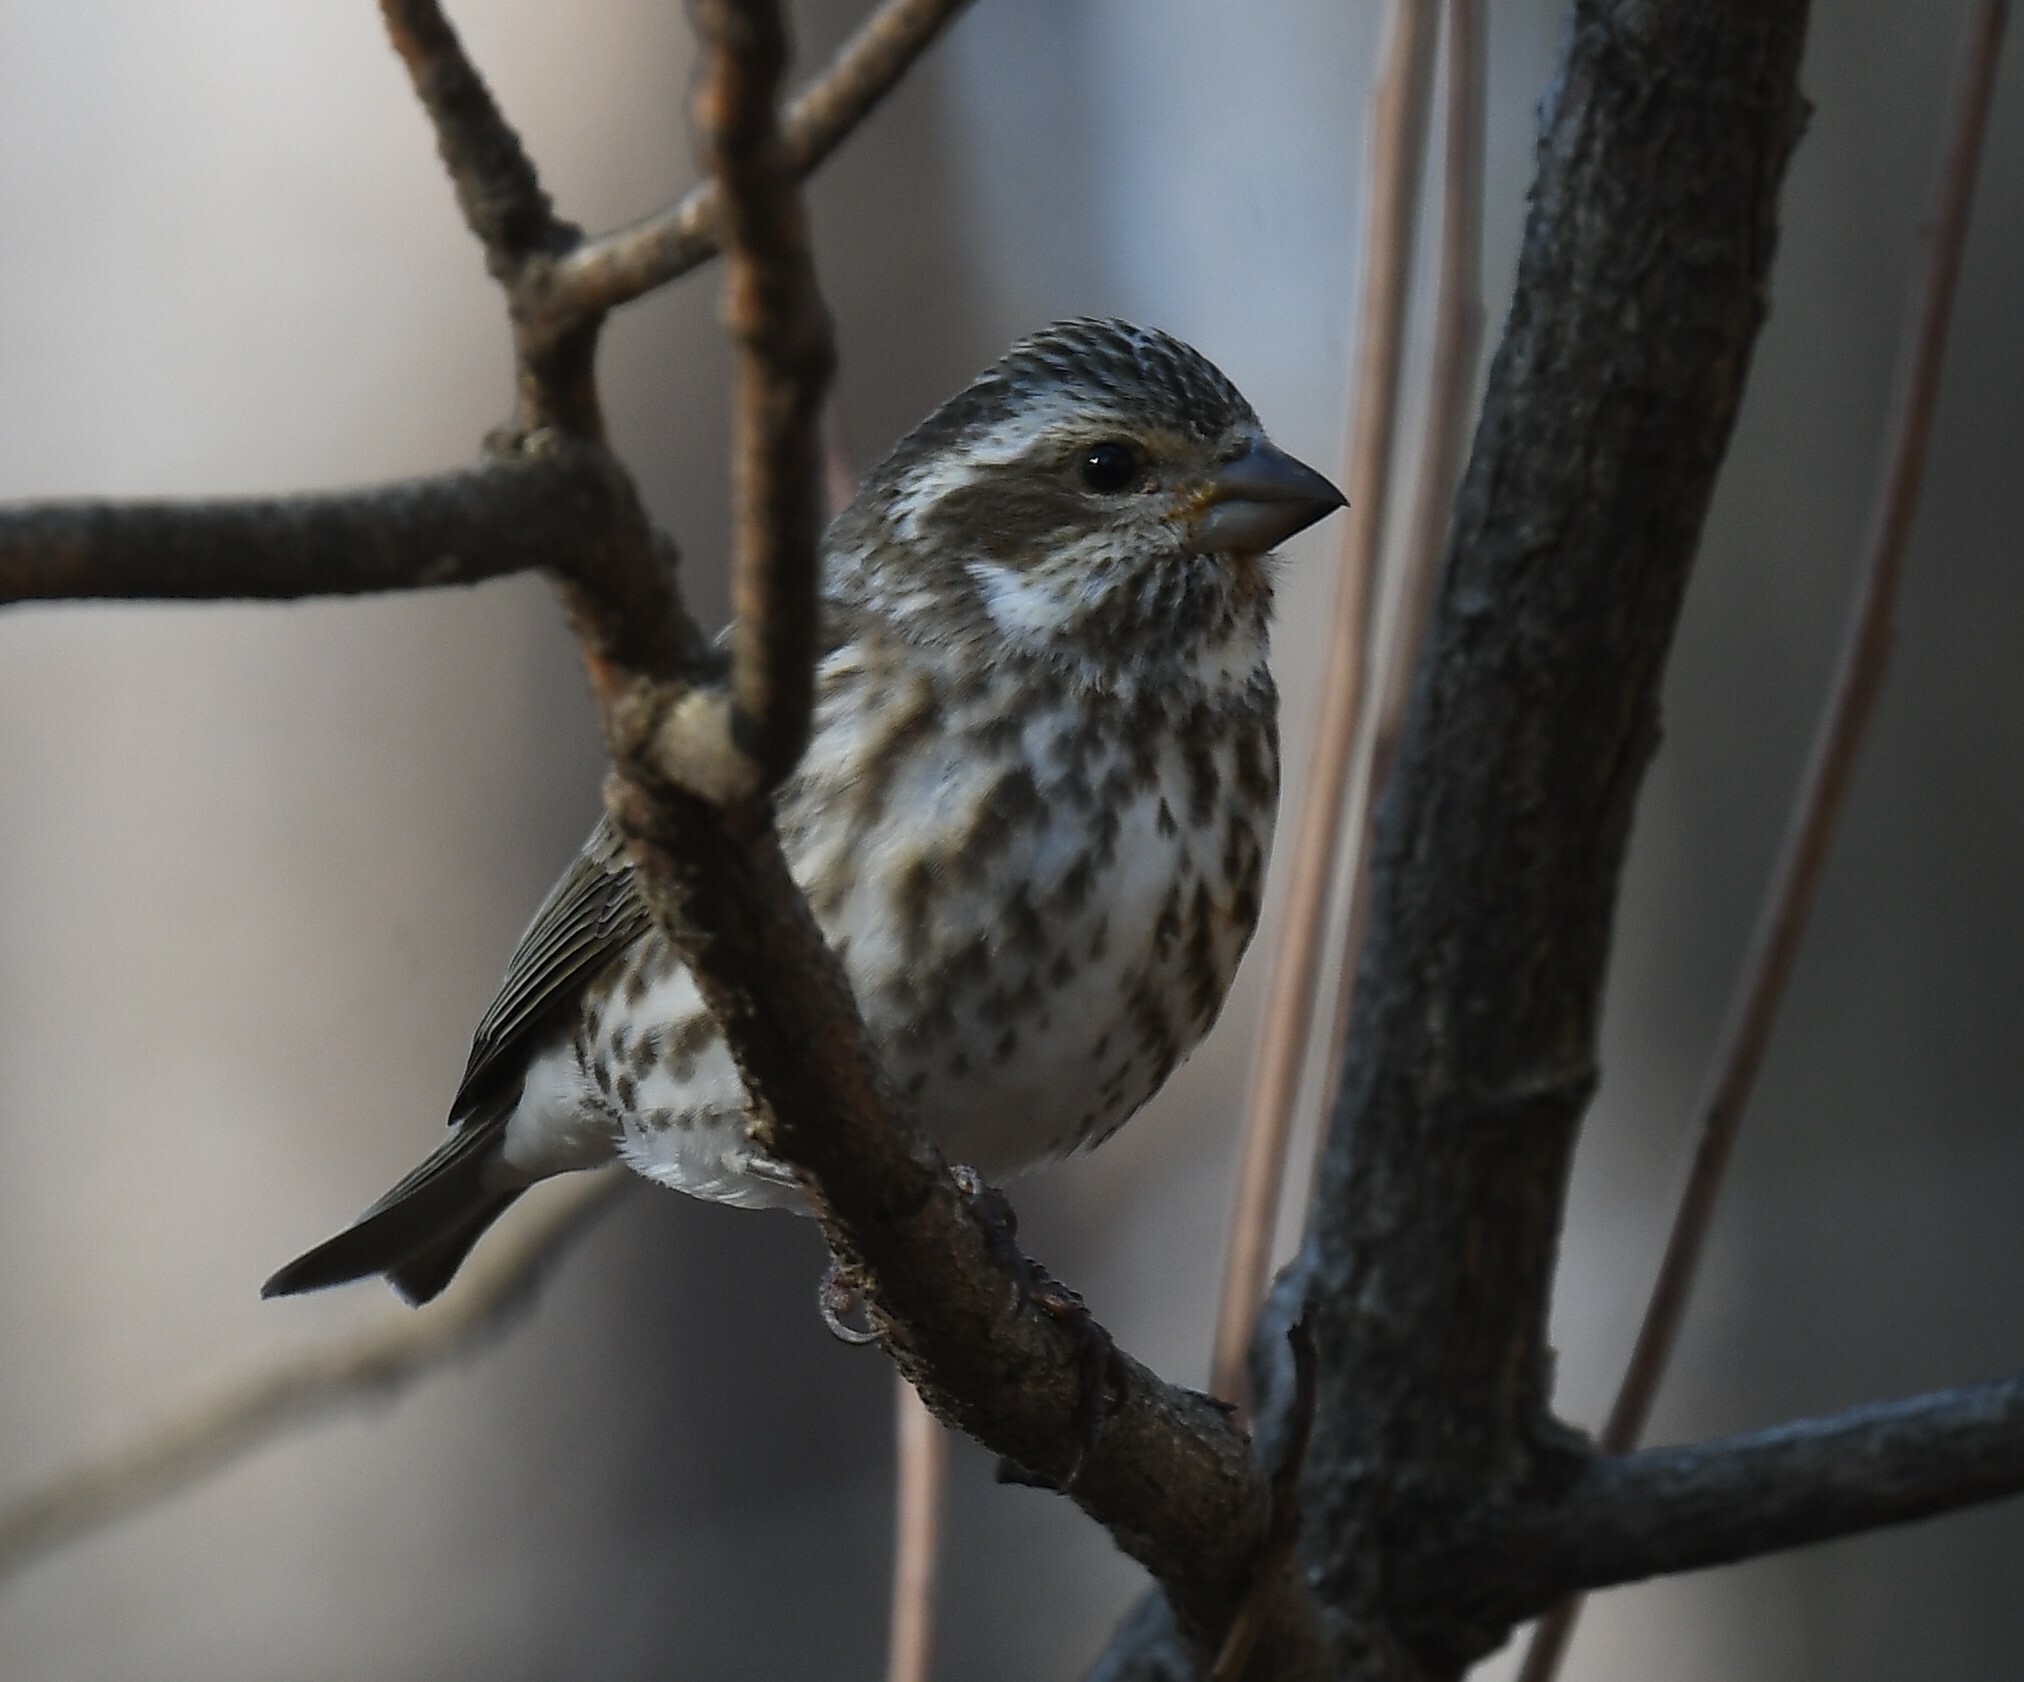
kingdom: Animalia
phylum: Chordata
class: Aves
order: Passeriformes
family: Fringillidae
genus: Haemorhous
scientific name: Haemorhous purpureus
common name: Purple finch
